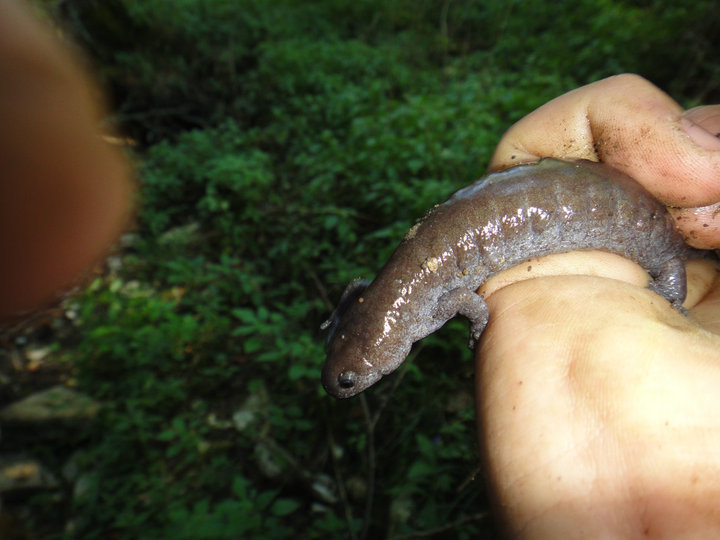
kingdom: Animalia
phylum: Chordata
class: Amphibia
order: Caudata
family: Ambystomatidae
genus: Ambystoma
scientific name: Ambystoma barbouri
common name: Streamside salamander
